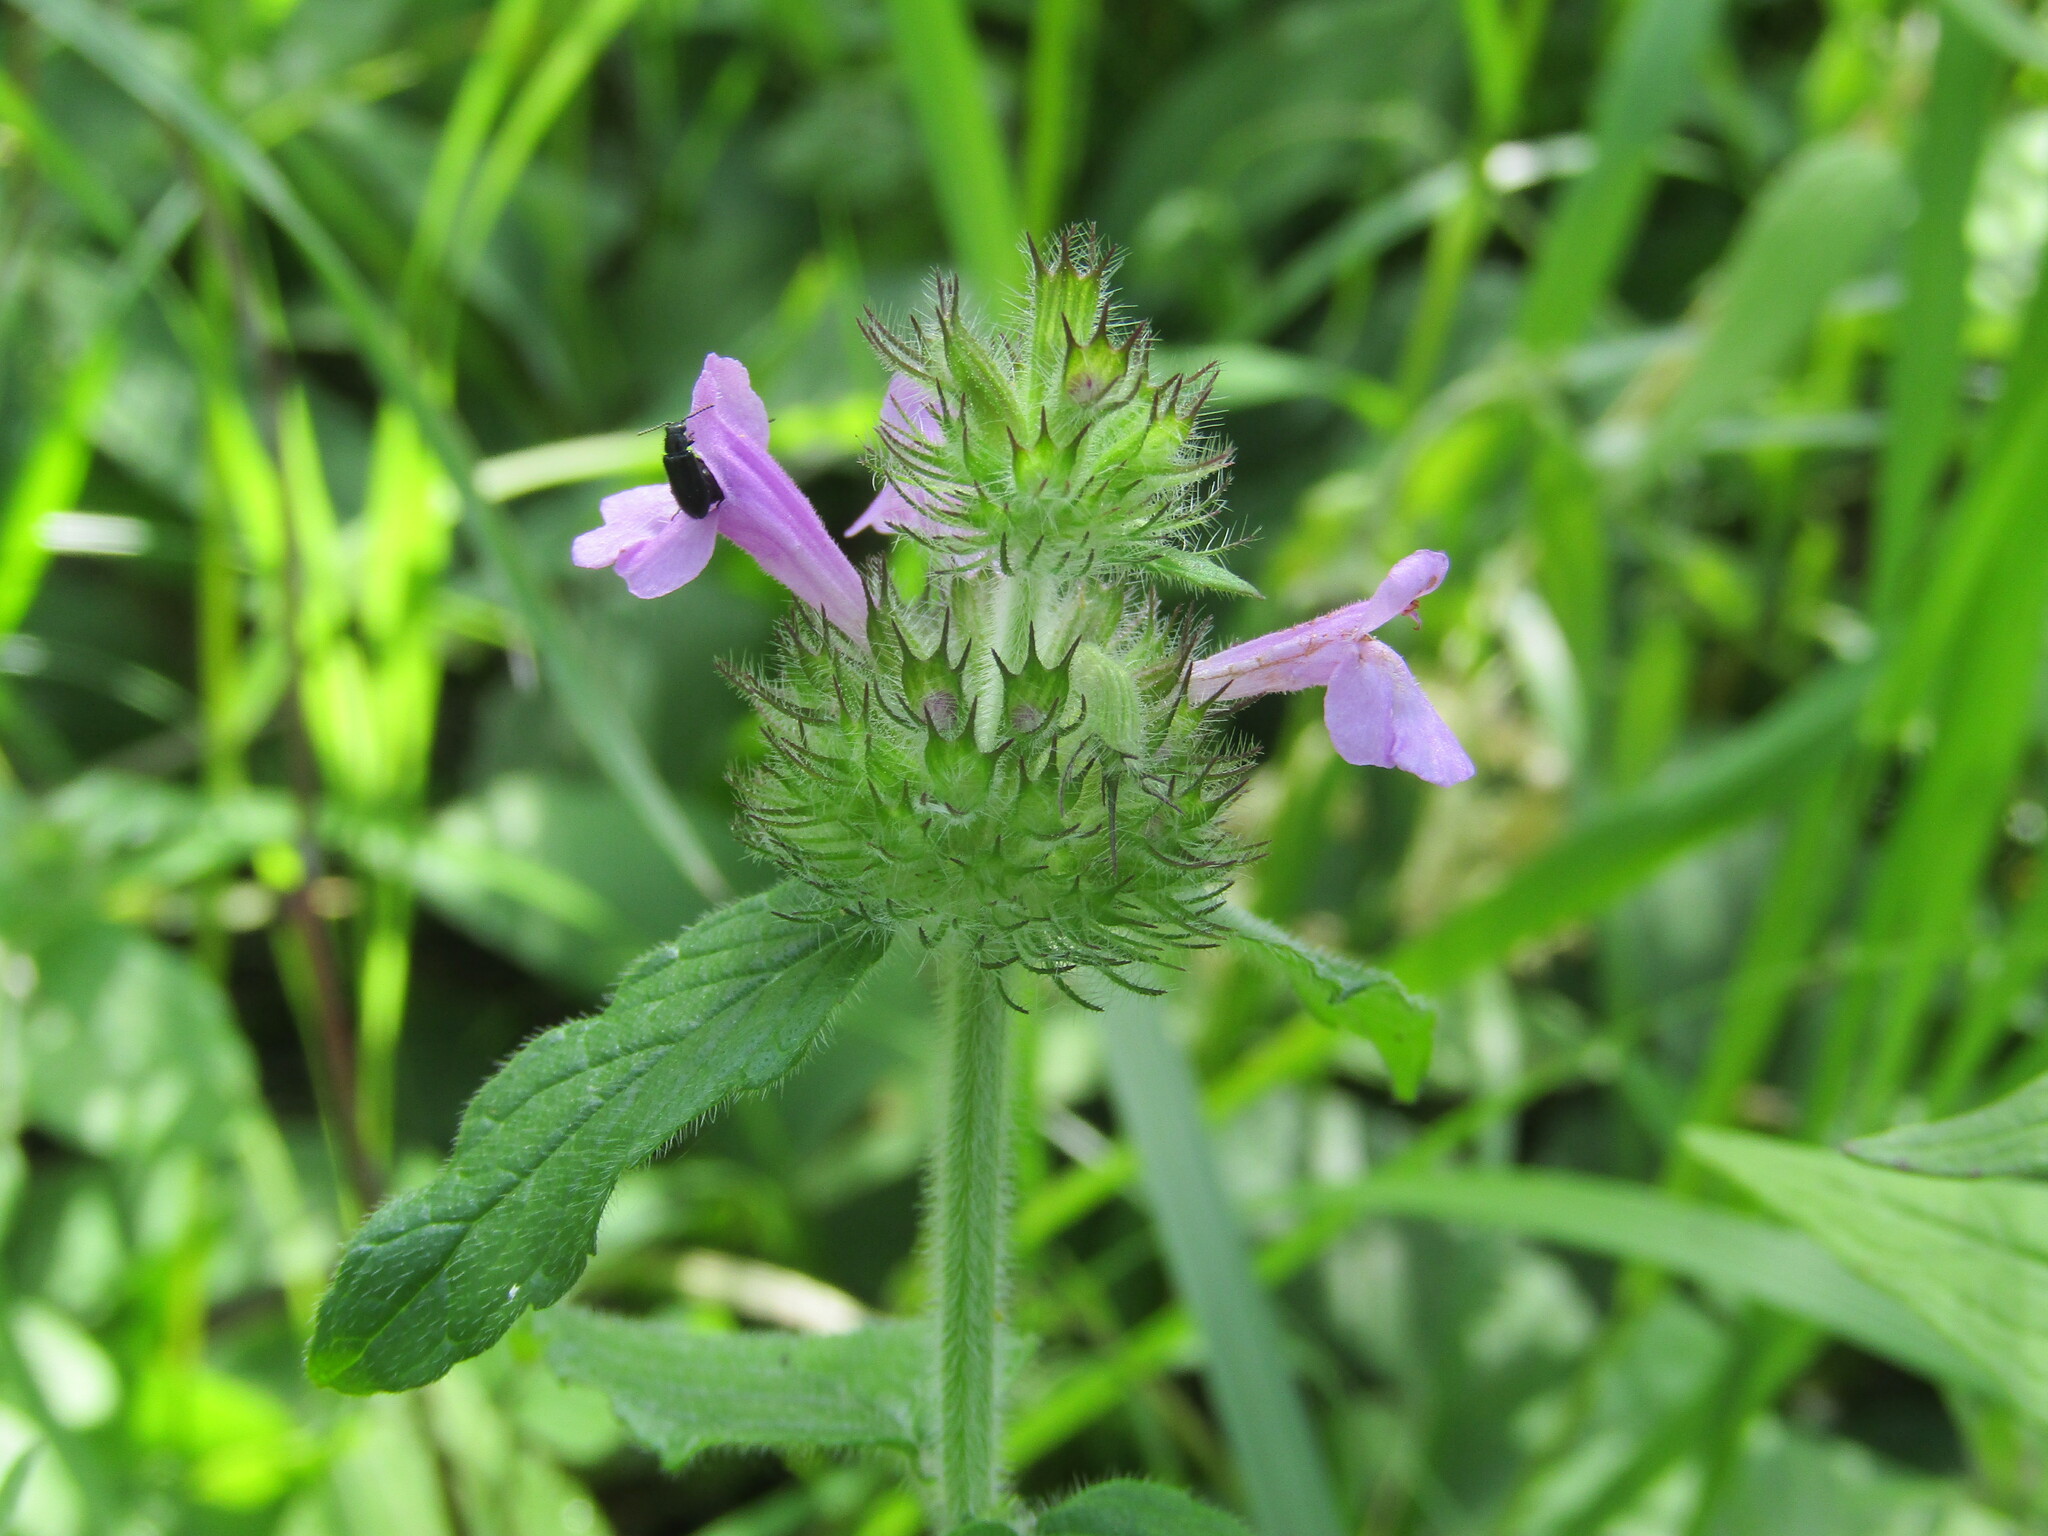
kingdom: Plantae
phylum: Tracheophyta
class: Magnoliopsida
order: Lamiales
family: Lamiaceae
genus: Clinopodium
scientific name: Clinopodium vulgare
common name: Wild basil
